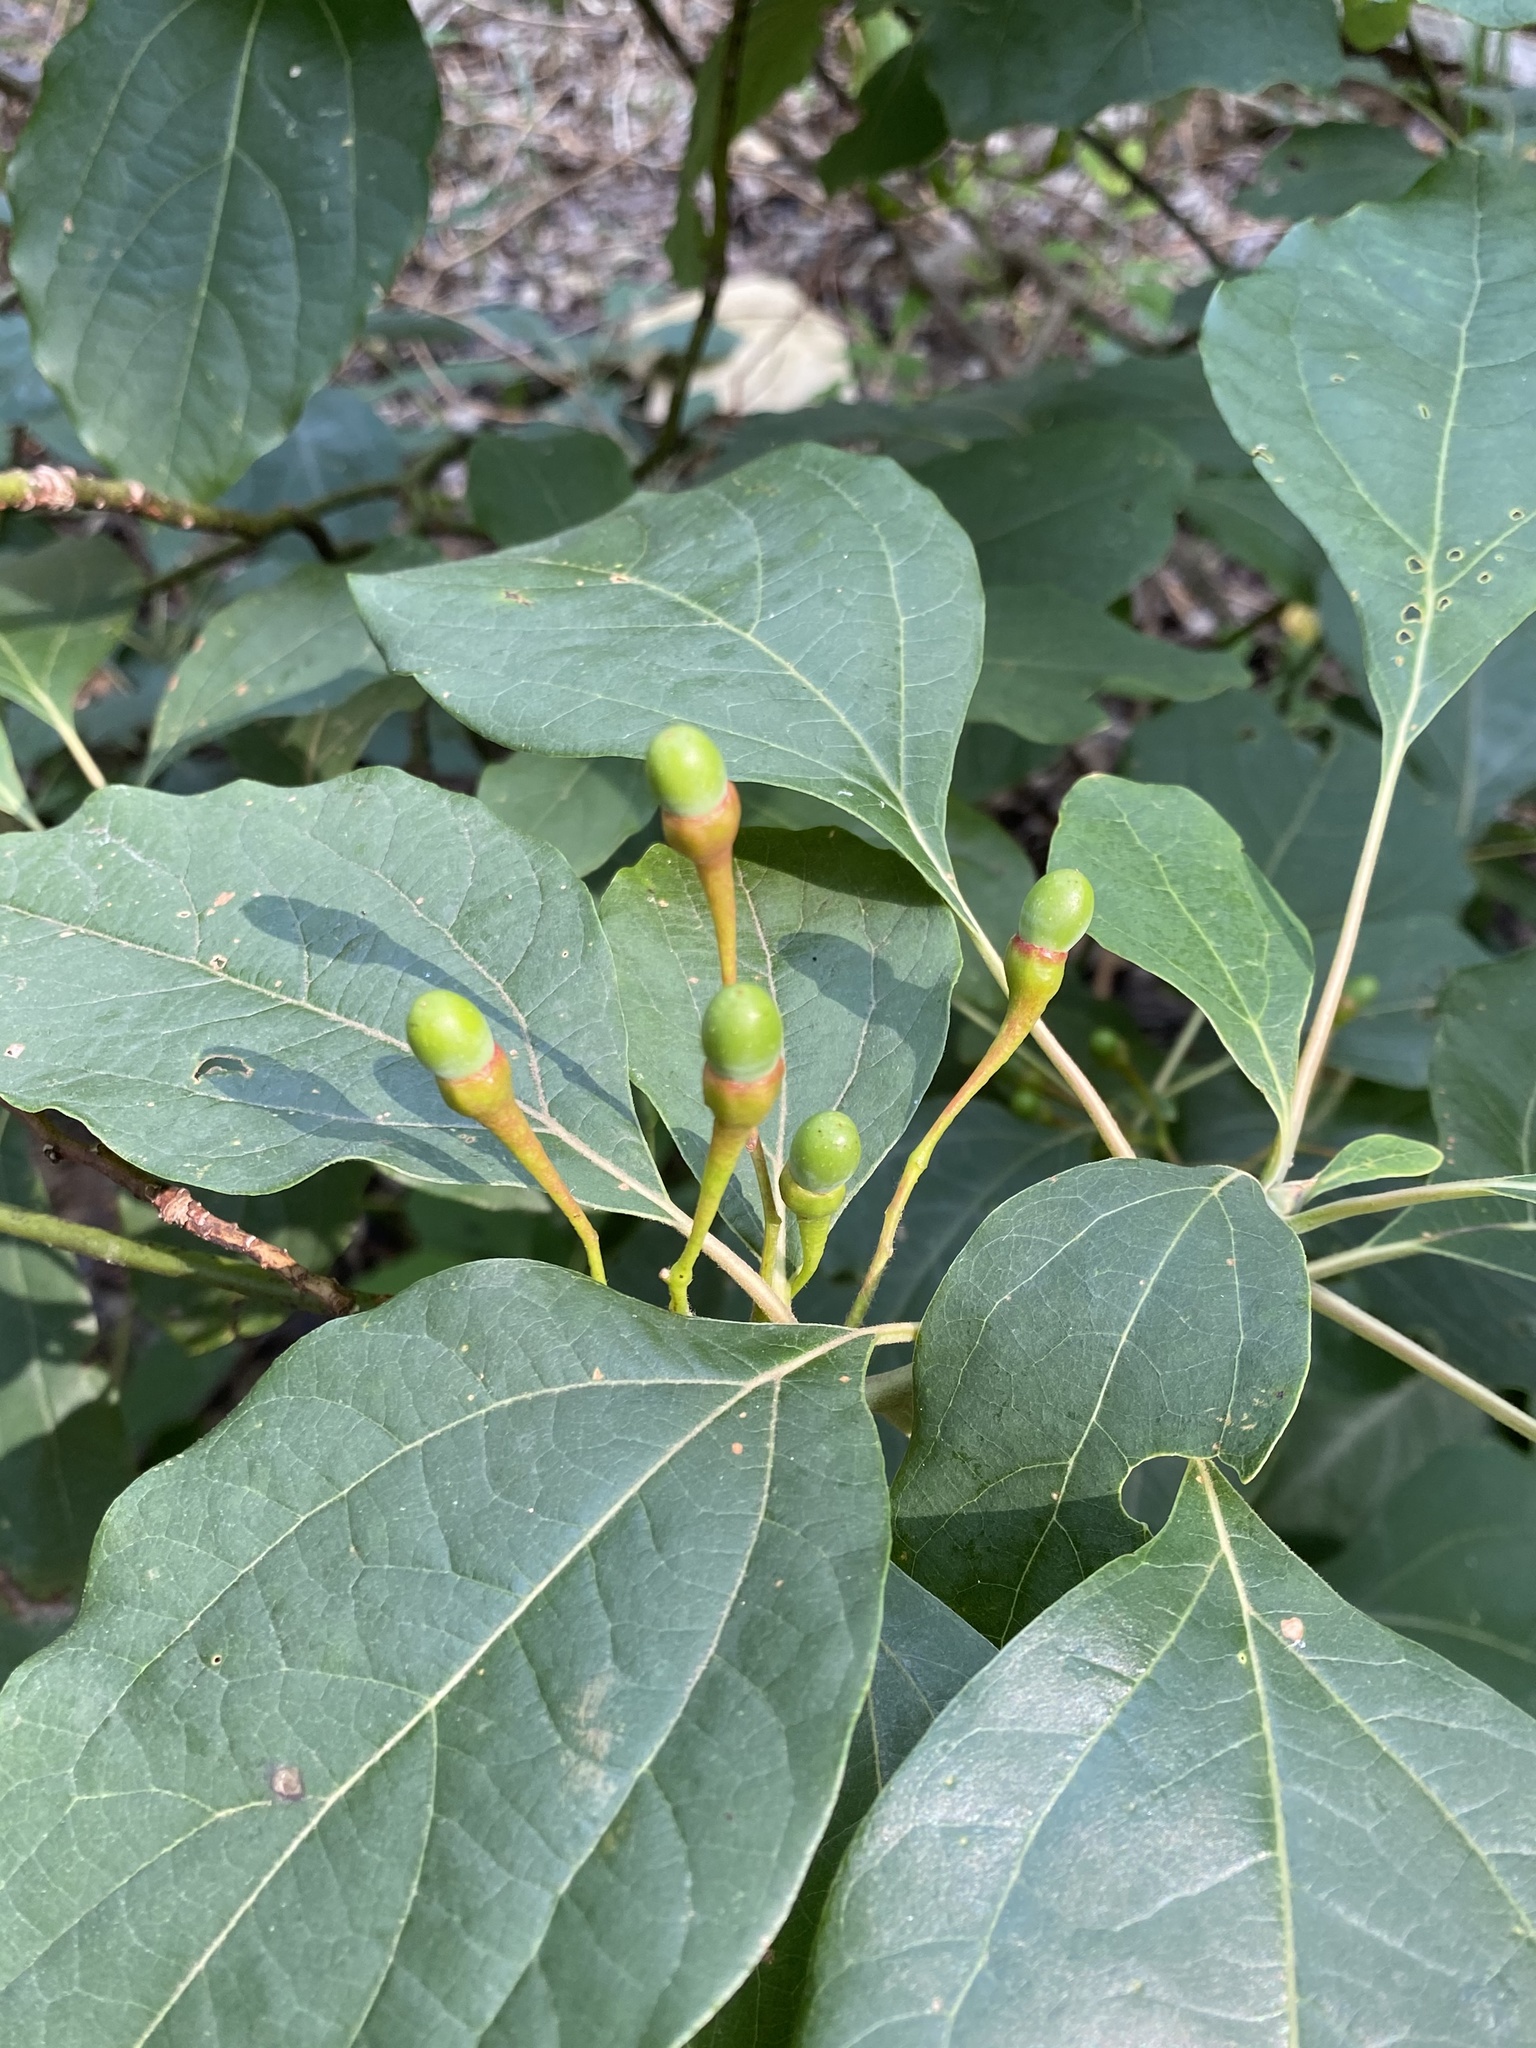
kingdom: Plantae
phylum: Tracheophyta
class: Magnoliopsida
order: Laurales
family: Lauraceae
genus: Sassafras
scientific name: Sassafras albidum
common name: Sassafras
